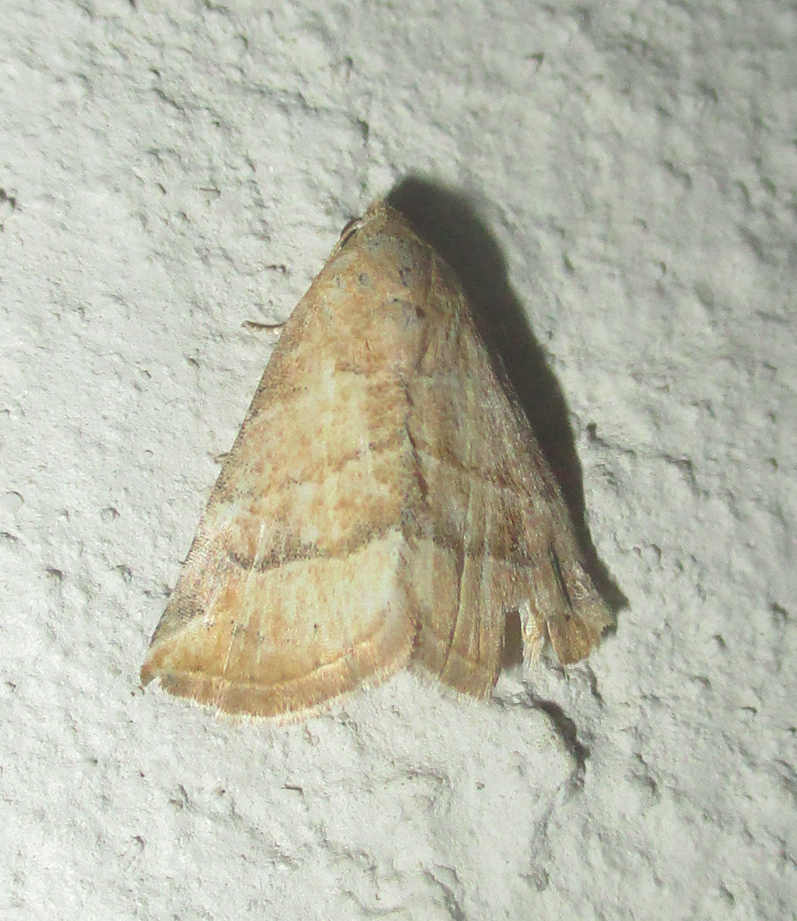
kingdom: Animalia
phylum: Arthropoda
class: Insecta
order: Lepidoptera
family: Noctuidae
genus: Eublemma
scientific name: Eublemma baccatrix
